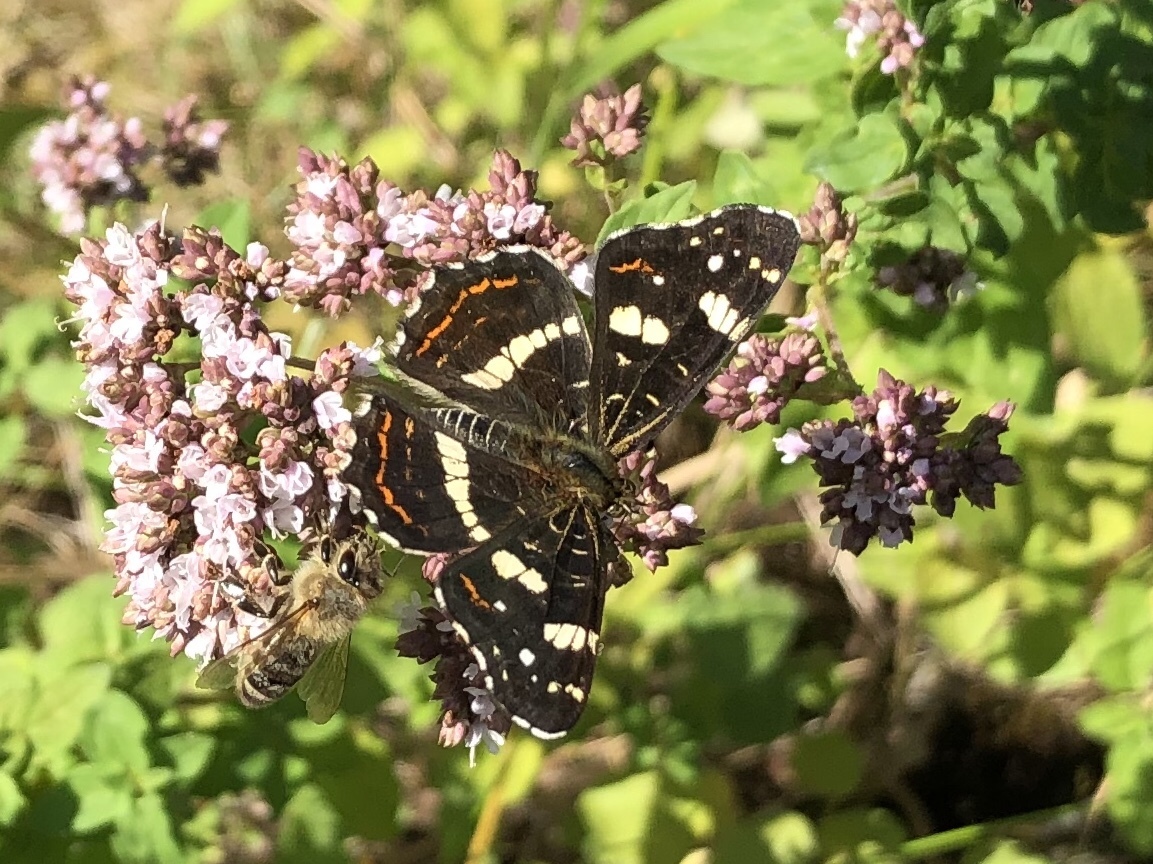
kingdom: Animalia
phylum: Arthropoda
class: Insecta
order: Lepidoptera
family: Nymphalidae
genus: Araschnia
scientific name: Araschnia levana
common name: Map butterfly
